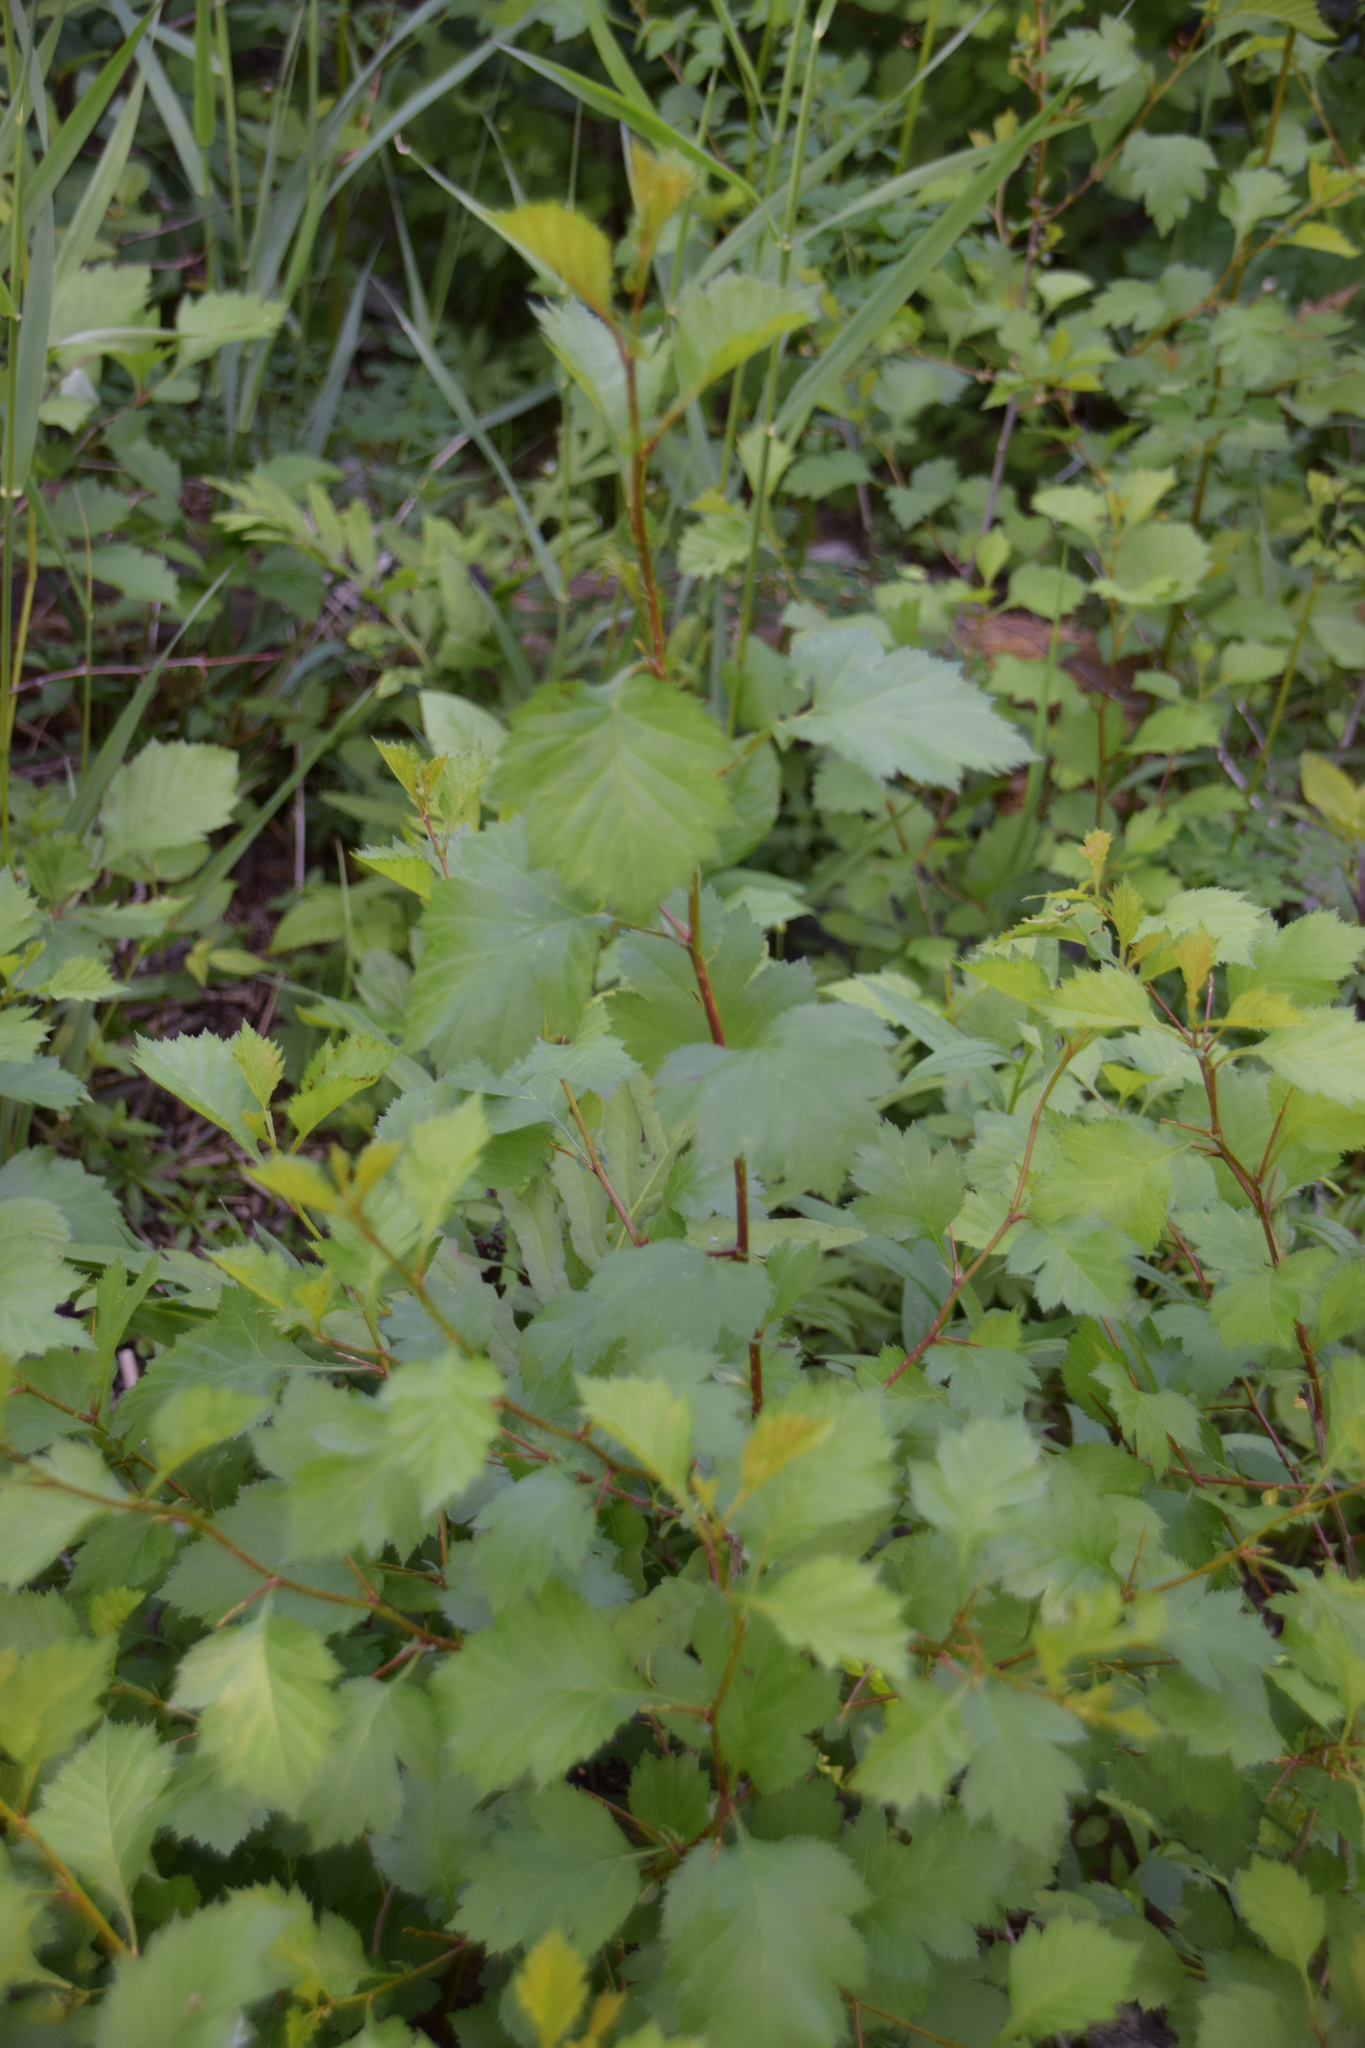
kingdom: Plantae
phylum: Tracheophyta
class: Magnoliopsida
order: Rosales
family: Rosaceae
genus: Crataegus
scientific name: Crataegus irrasa
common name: Unshorn hawthorn
